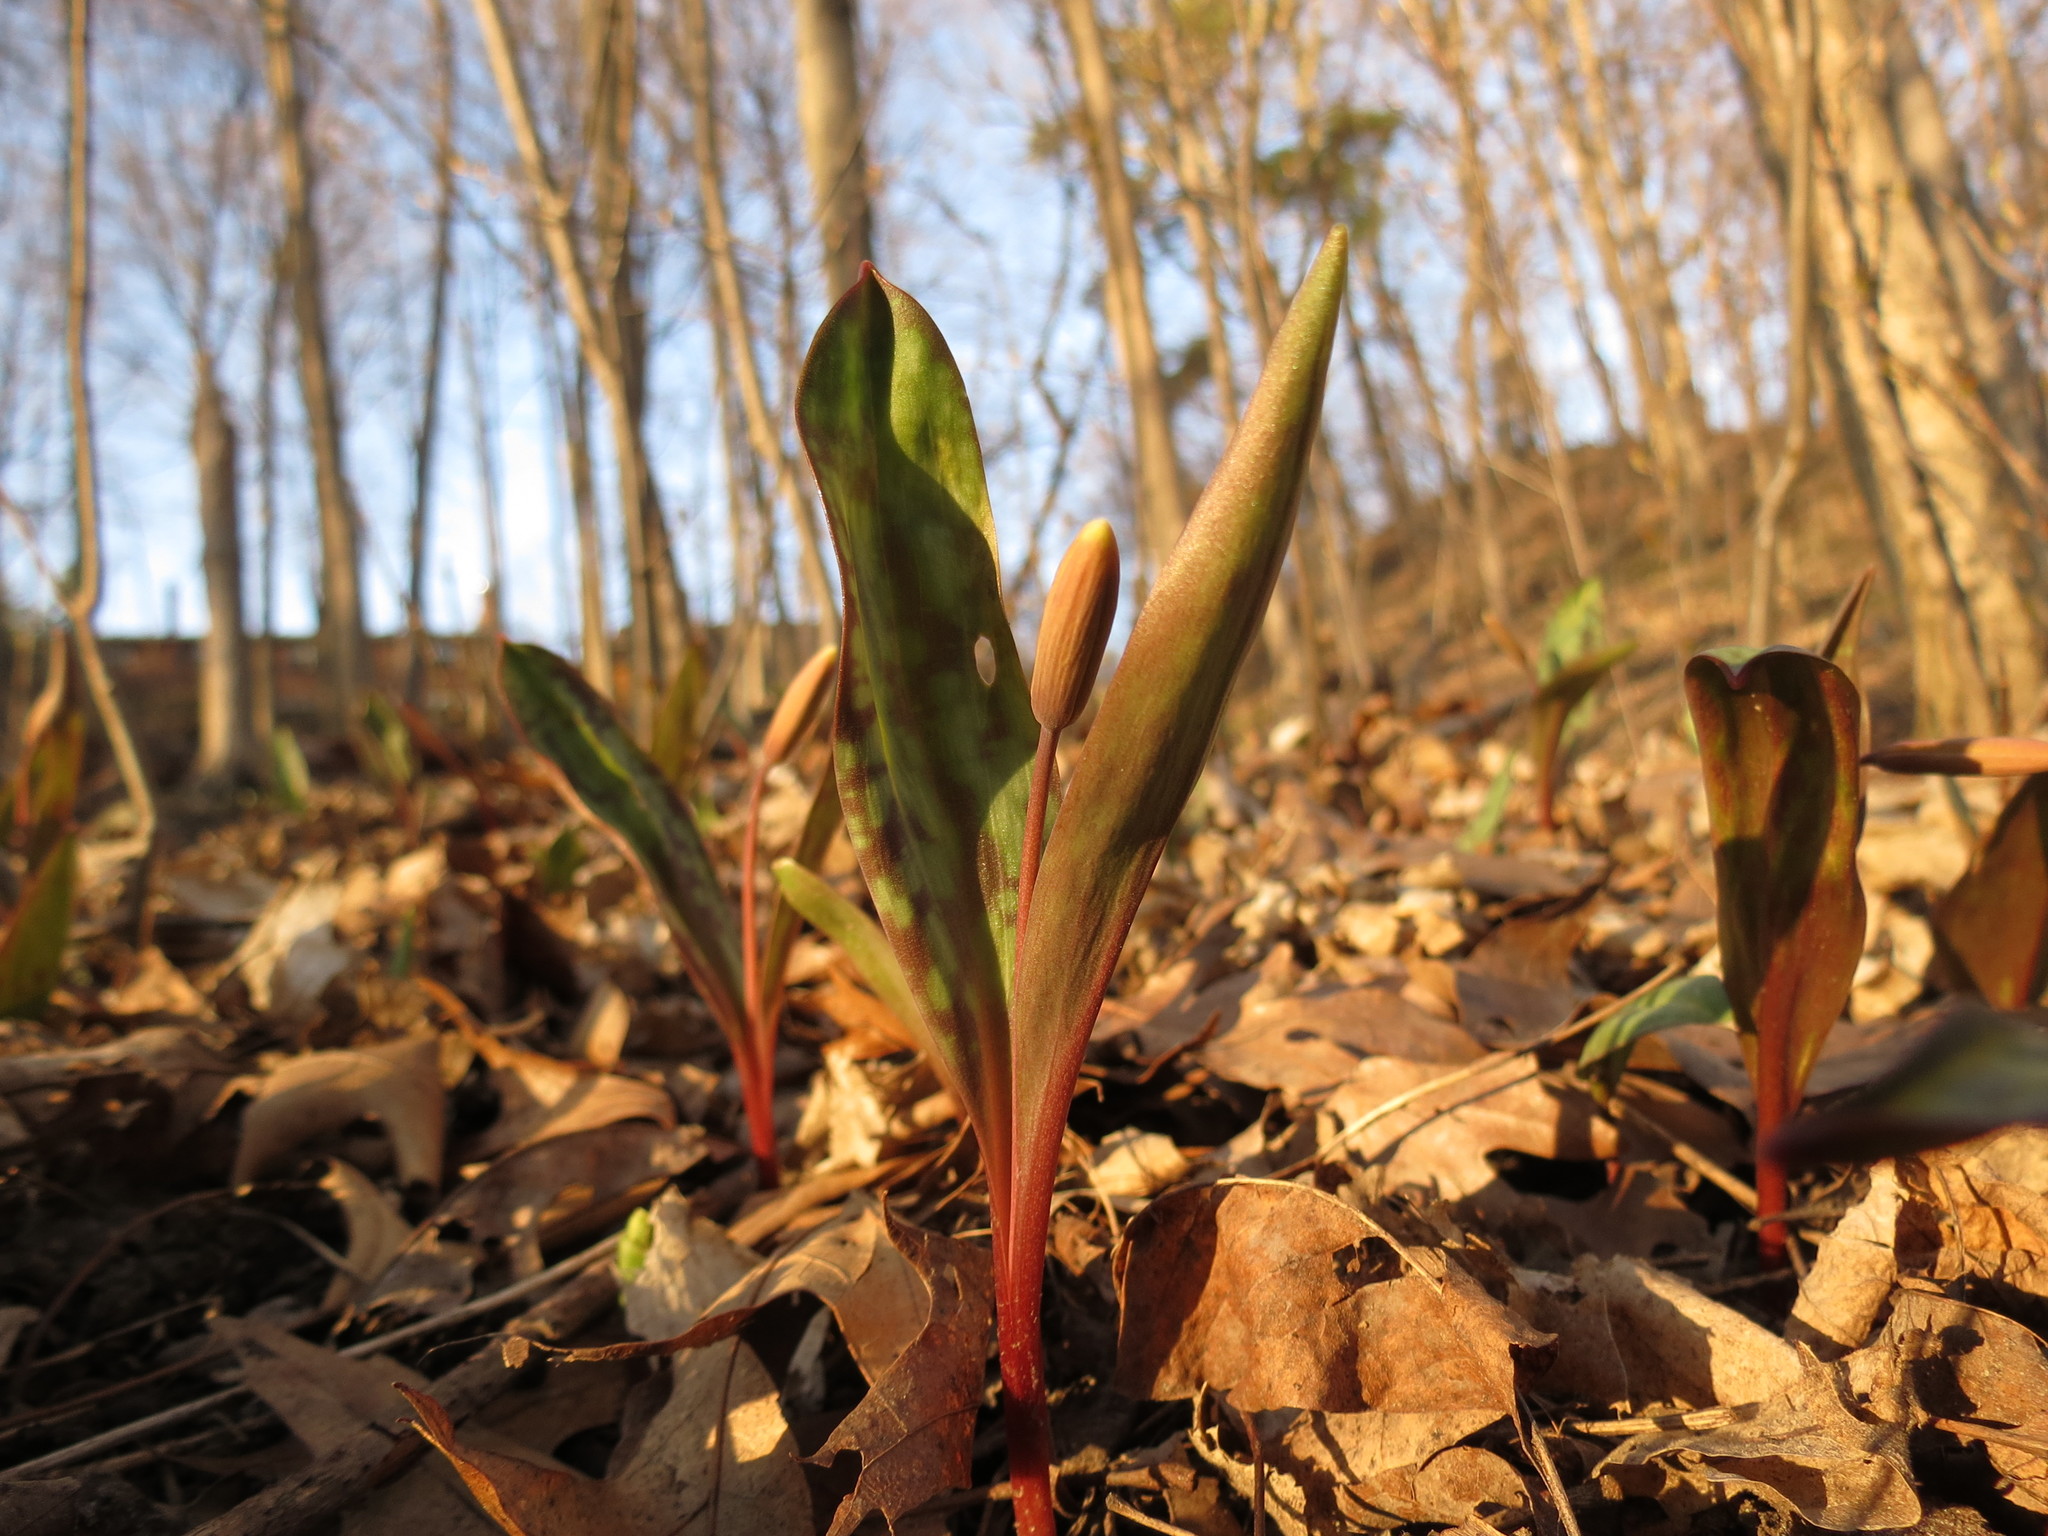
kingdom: Plantae
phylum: Tracheophyta
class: Liliopsida
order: Liliales
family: Liliaceae
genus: Erythronium
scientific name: Erythronium americanum
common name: Yellow adder's-tongue
